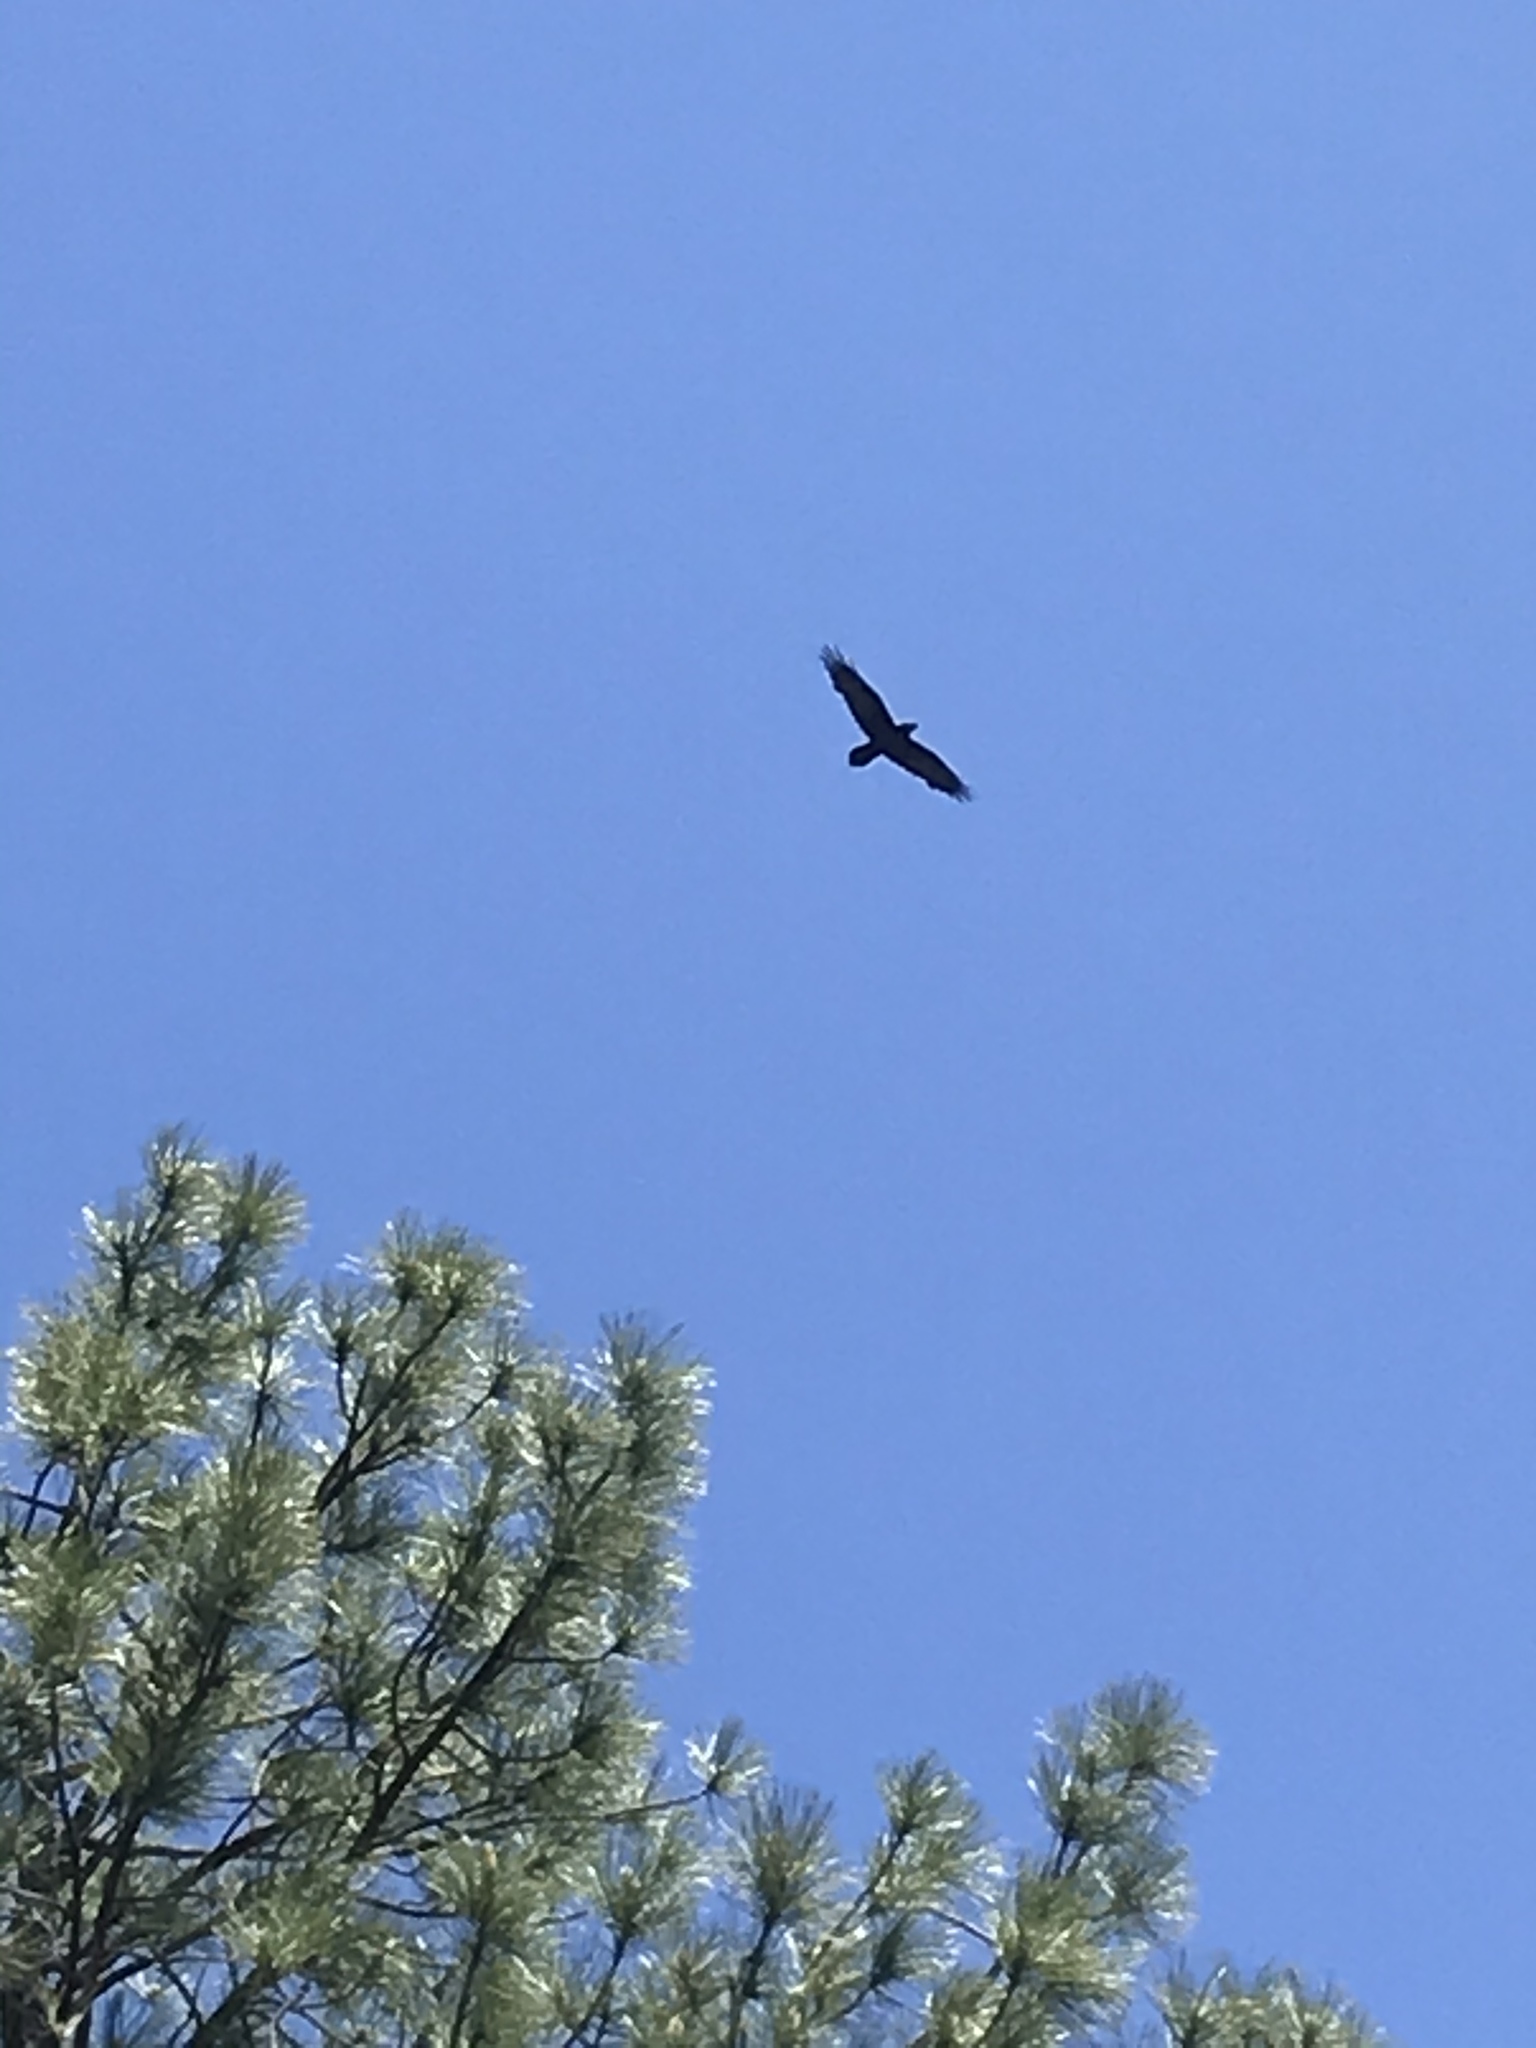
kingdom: Animalia
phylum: Chordata
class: Aves
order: Passeriformes
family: Corvidae
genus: Corvus
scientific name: Corvus corax
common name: Common raven
